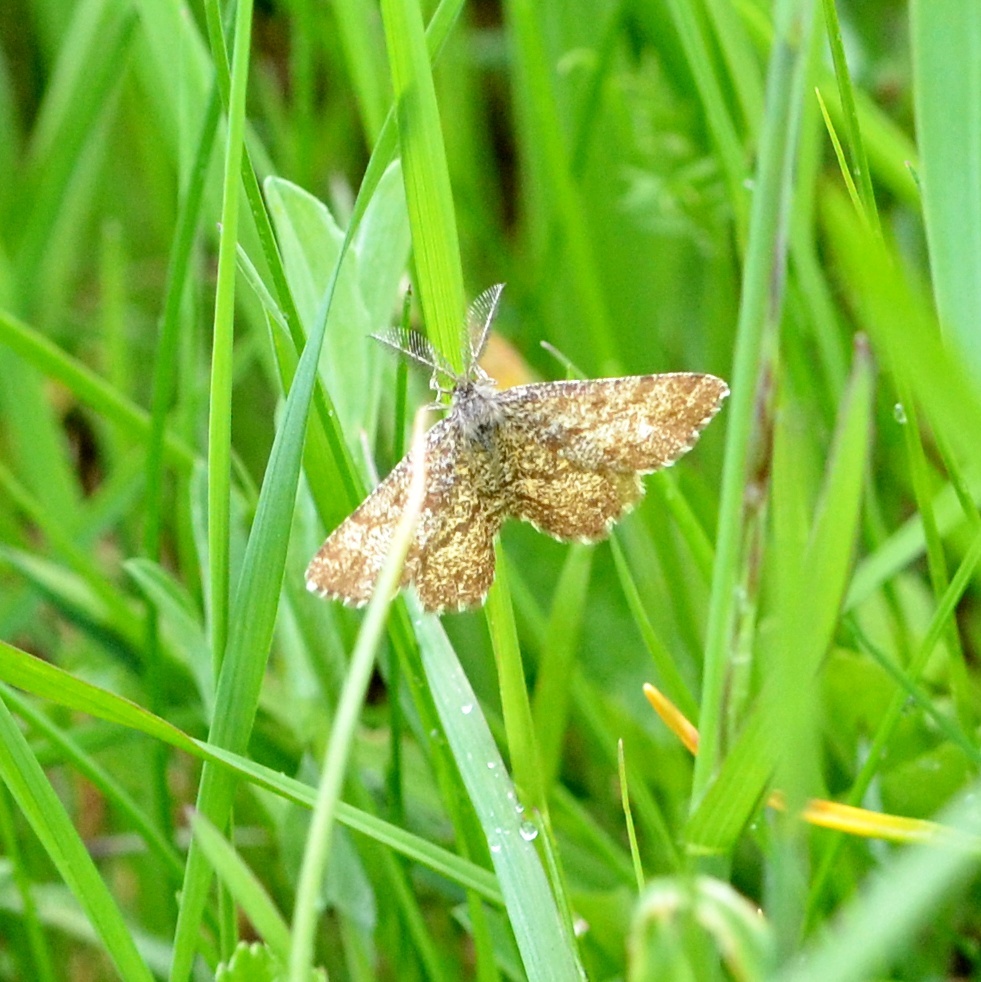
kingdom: Animalia
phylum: Arthropoda
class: Insecta
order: Lepidoptera
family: Geometridae
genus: Ematurga
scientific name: Ematurga atomaria
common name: Common heath
